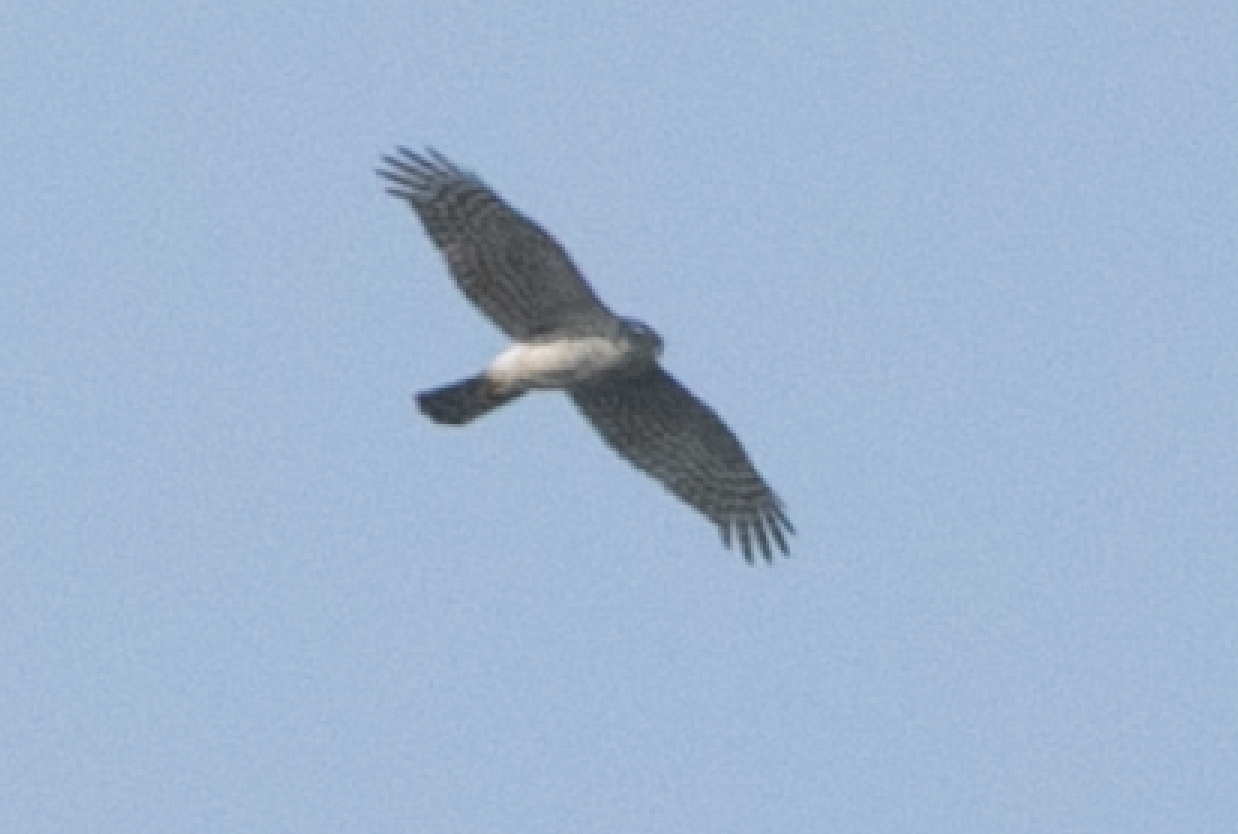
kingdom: Animalia
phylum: Chordata
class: Aves
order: Accipitriformes
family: Accipitridae
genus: Accipiter
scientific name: Accipiter nisus
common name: Eurasian sparrowhawk
